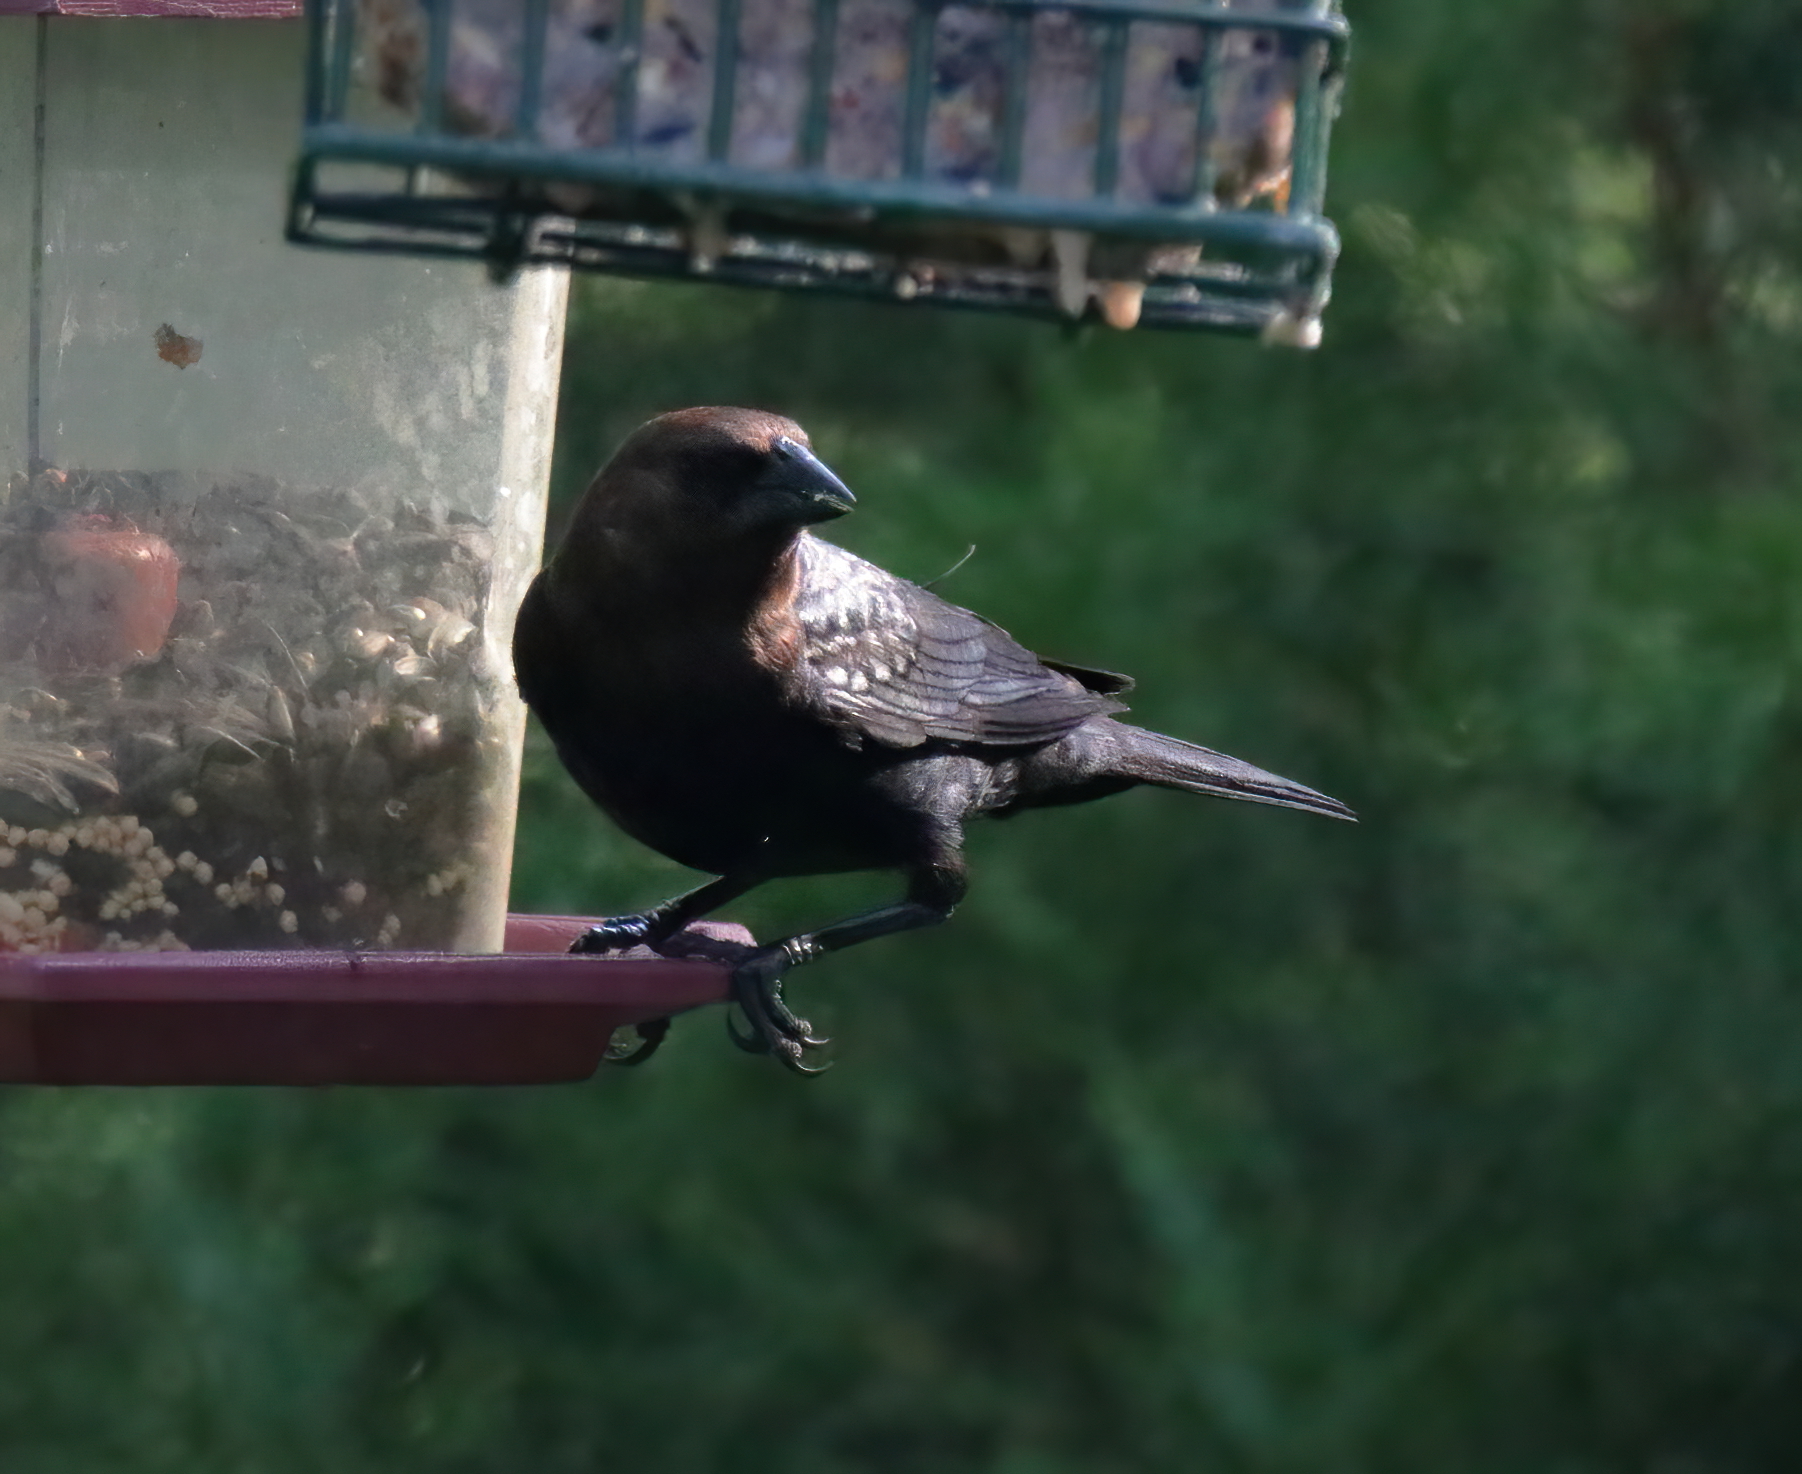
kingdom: Animalia
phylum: Chordata
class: Aves
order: Passeriformes
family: Icteridae
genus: Molothrus
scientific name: Molothrus ater
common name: Brown-headed cowbird
